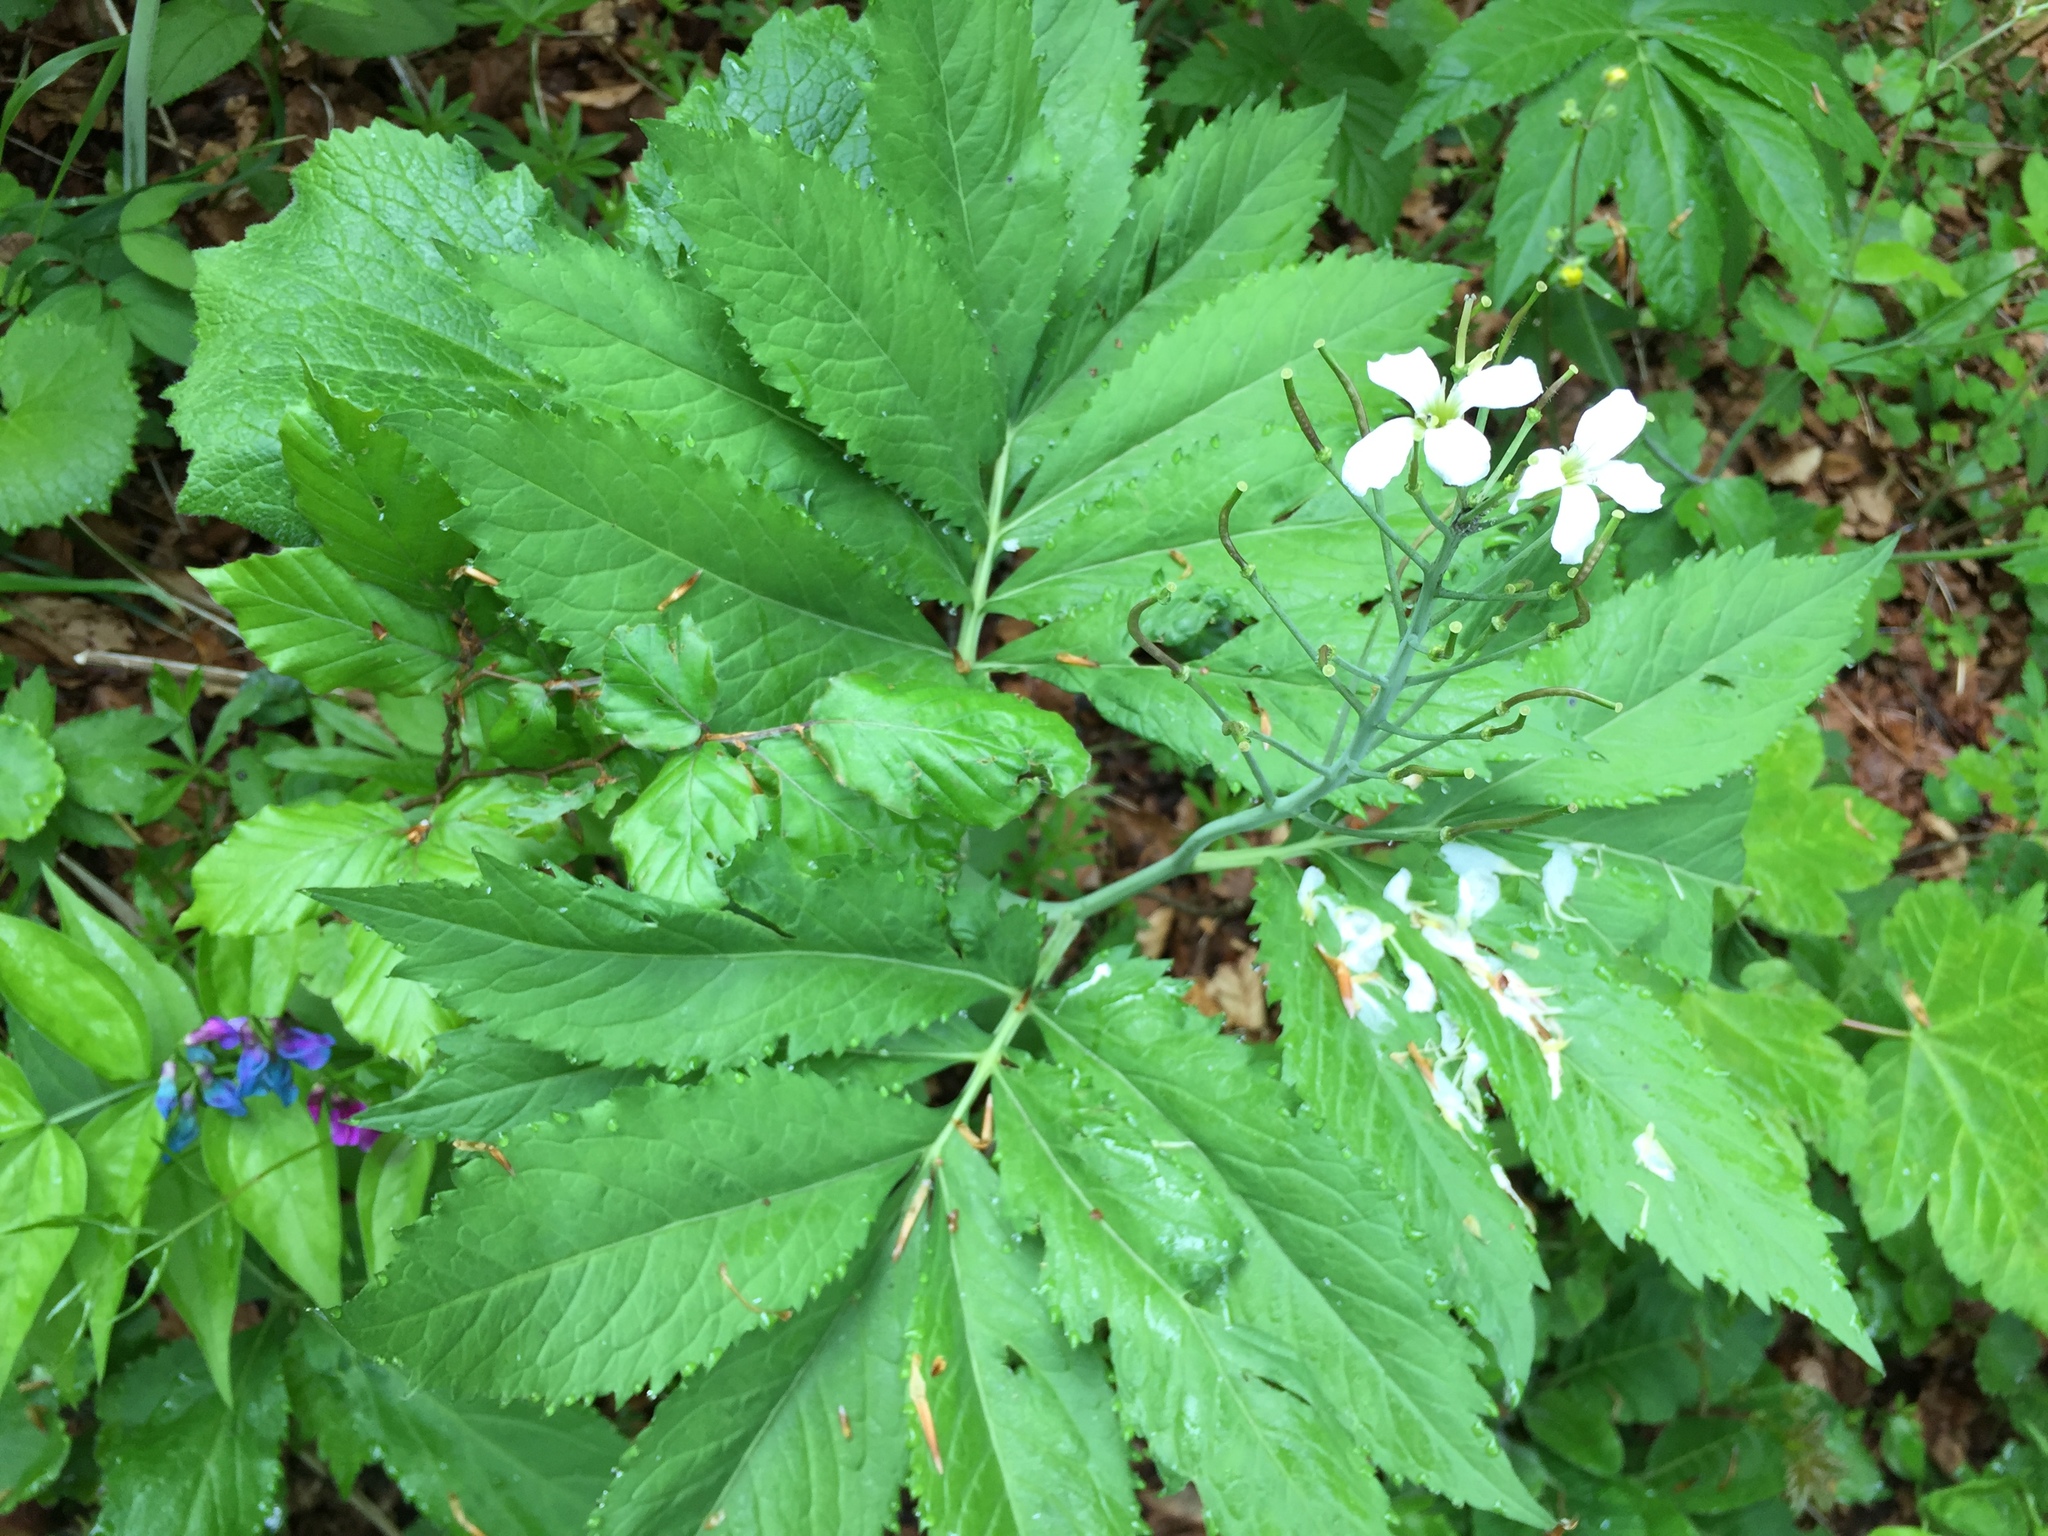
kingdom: Plantae
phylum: Tracheophyta
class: Magnoliopsida
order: Brassicales
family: Brassicaceae
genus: Cardamine
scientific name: Cardamine heptaphylla
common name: Pinnate coralroot
